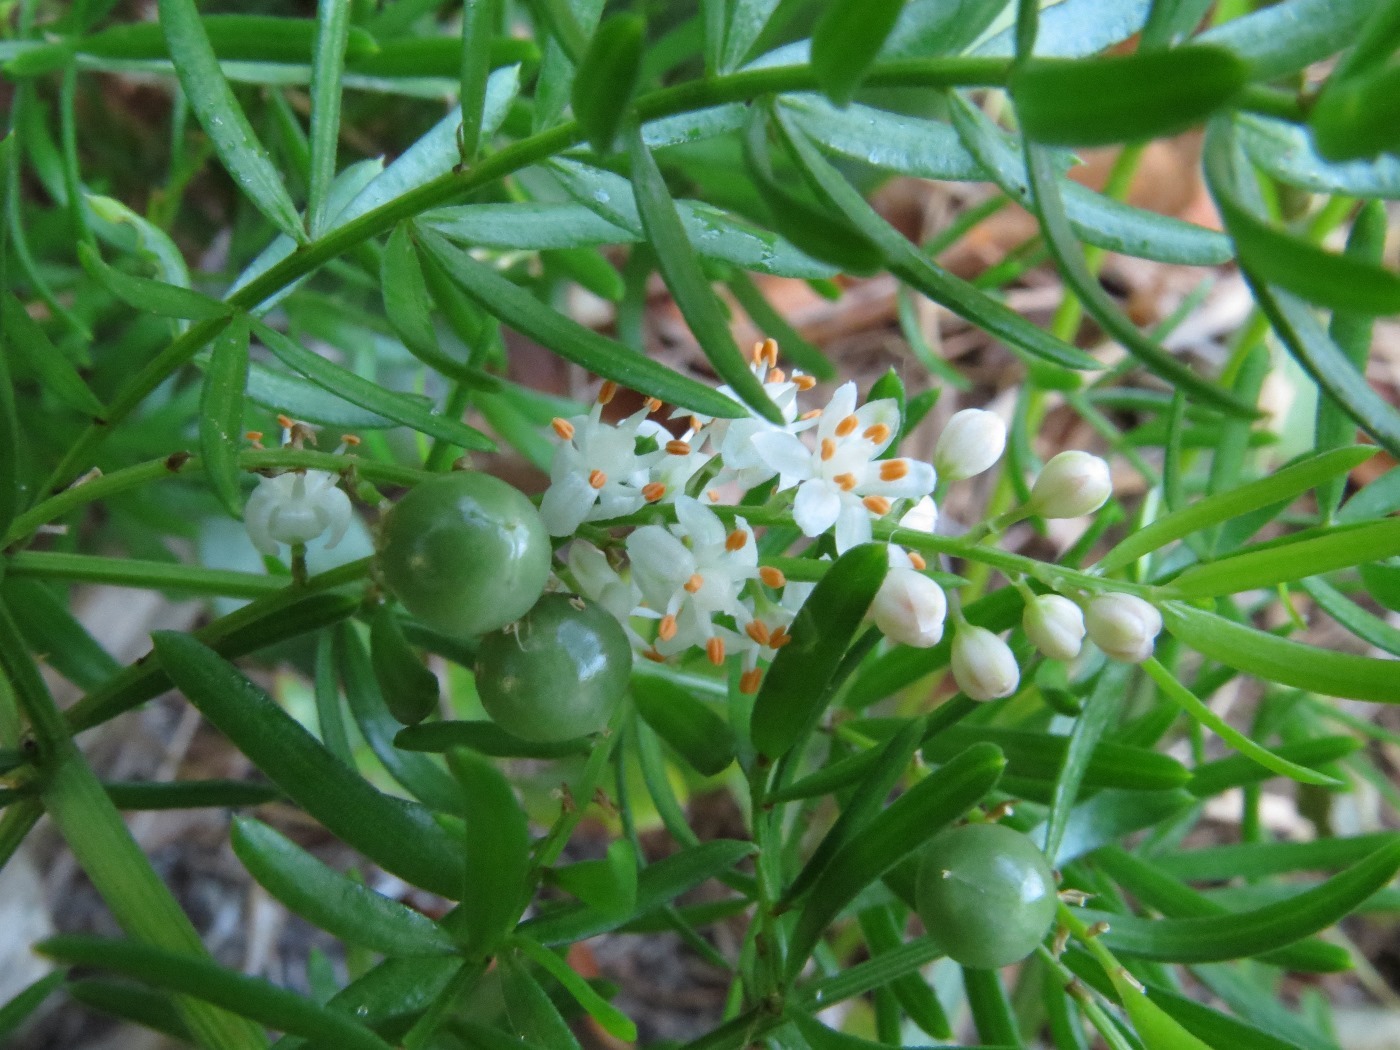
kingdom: Plantae
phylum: Tracheophyta
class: Liliopsida
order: Asparagales
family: Asparagaceae
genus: Asparagus
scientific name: Asparagus aethiopicus
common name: Sprenger's asparagus fern
